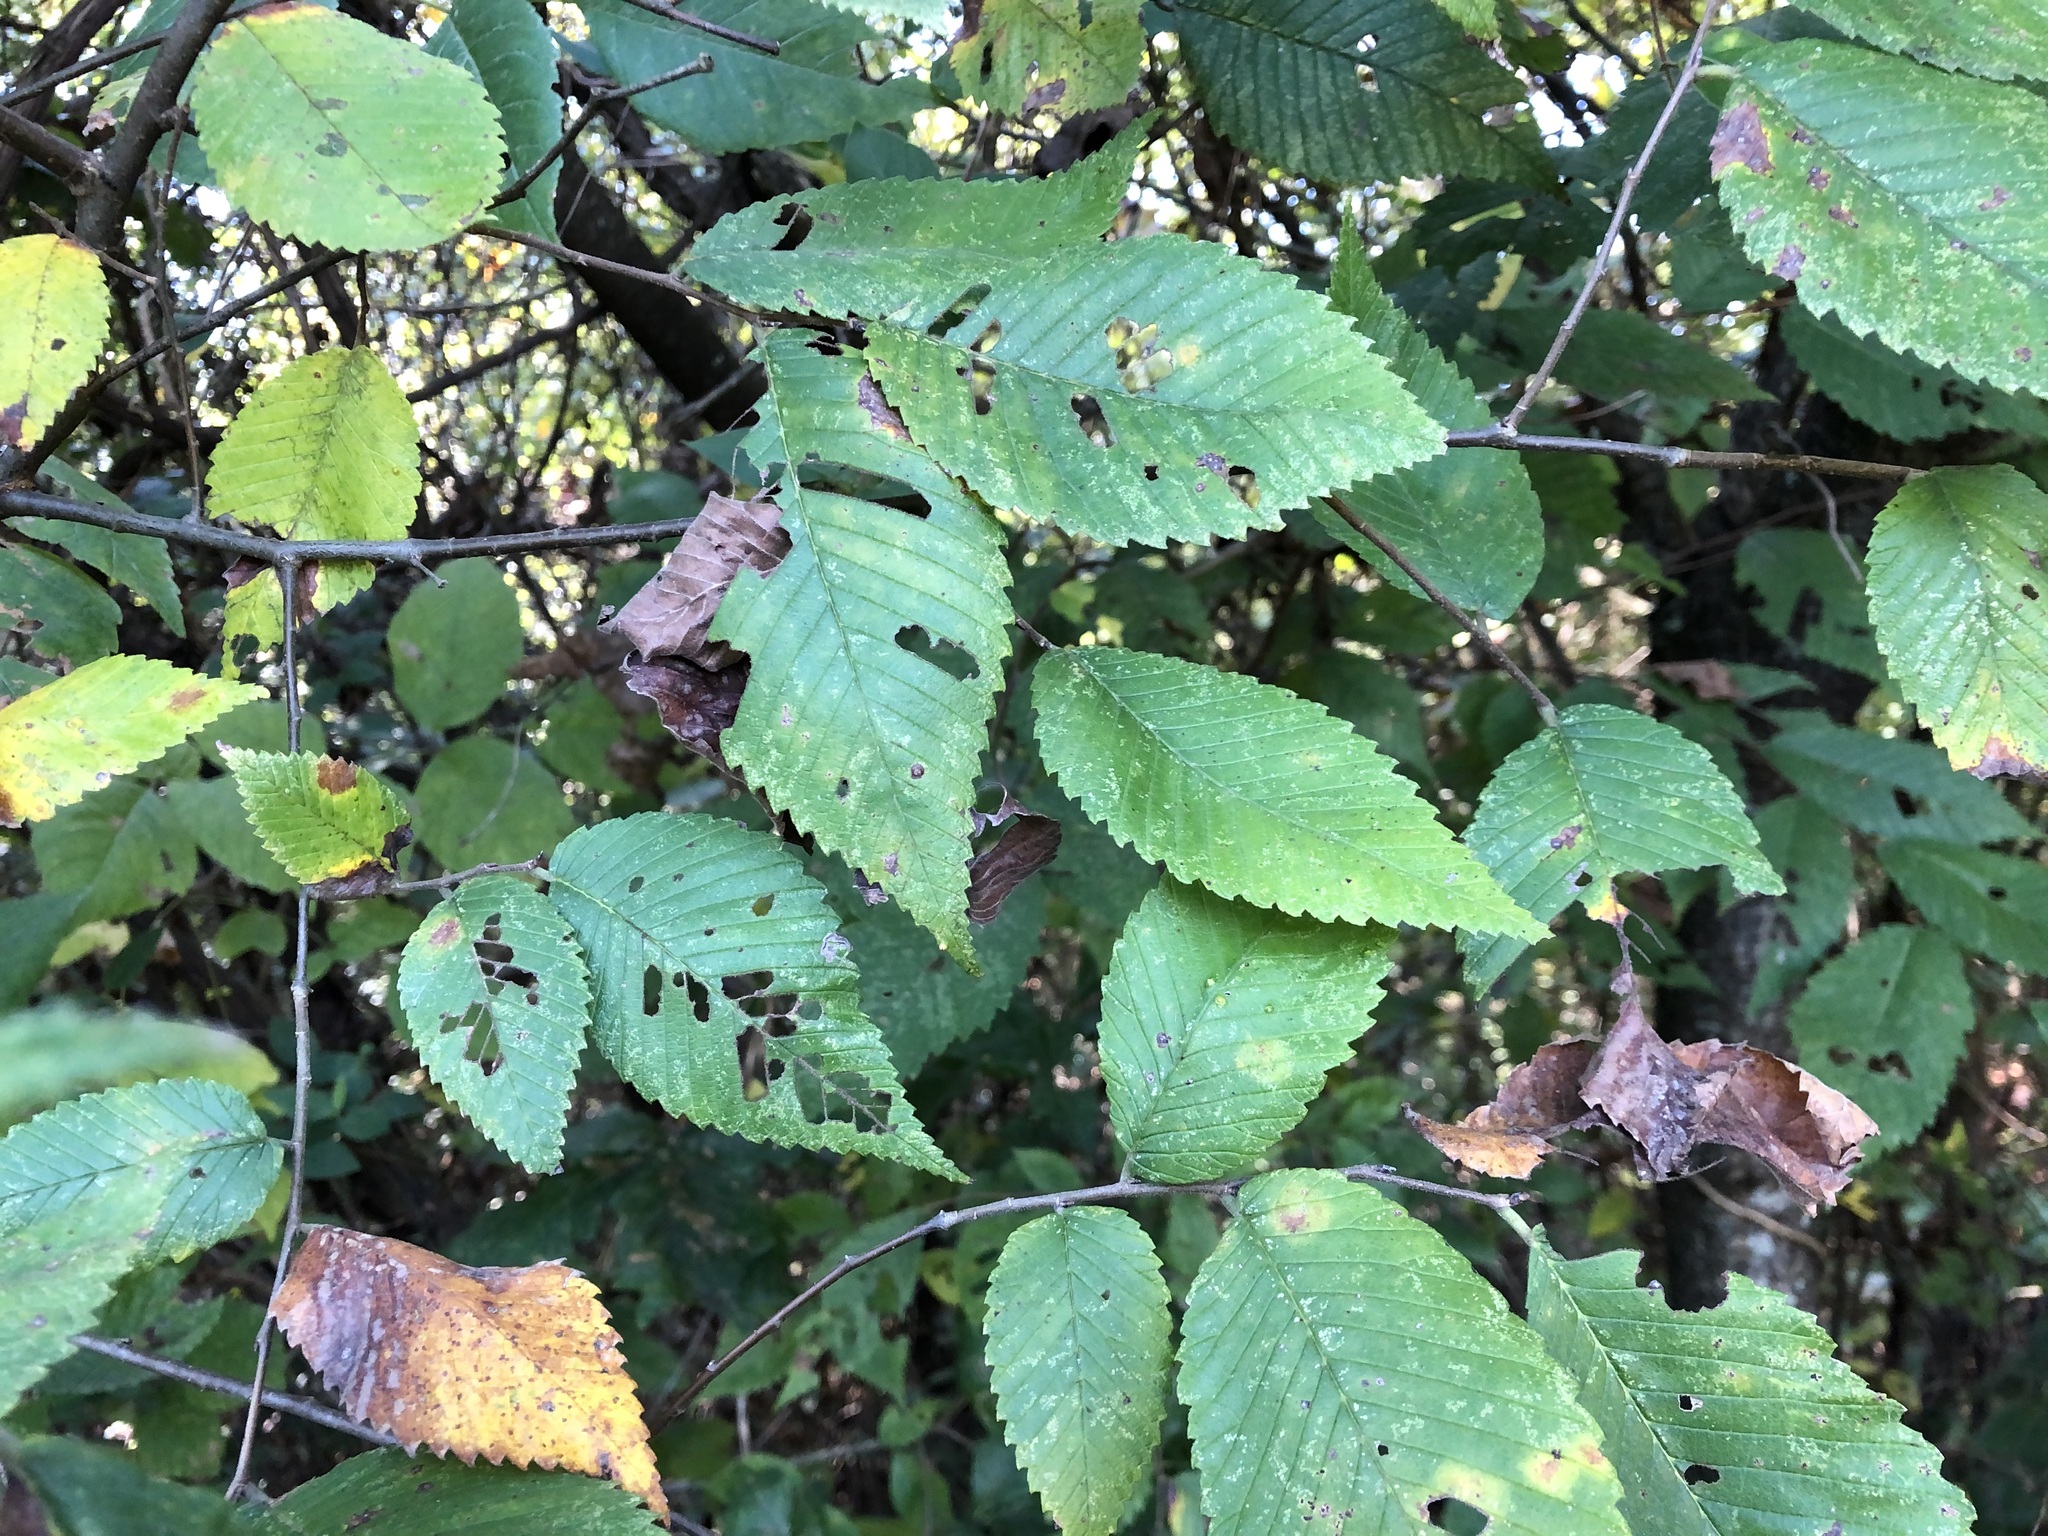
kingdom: Plantae
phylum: Tracheophyta
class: Magnoliopsida
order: Rosales
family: Ulmaceae
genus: Ulmus
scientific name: Ulmus americana
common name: American elm
